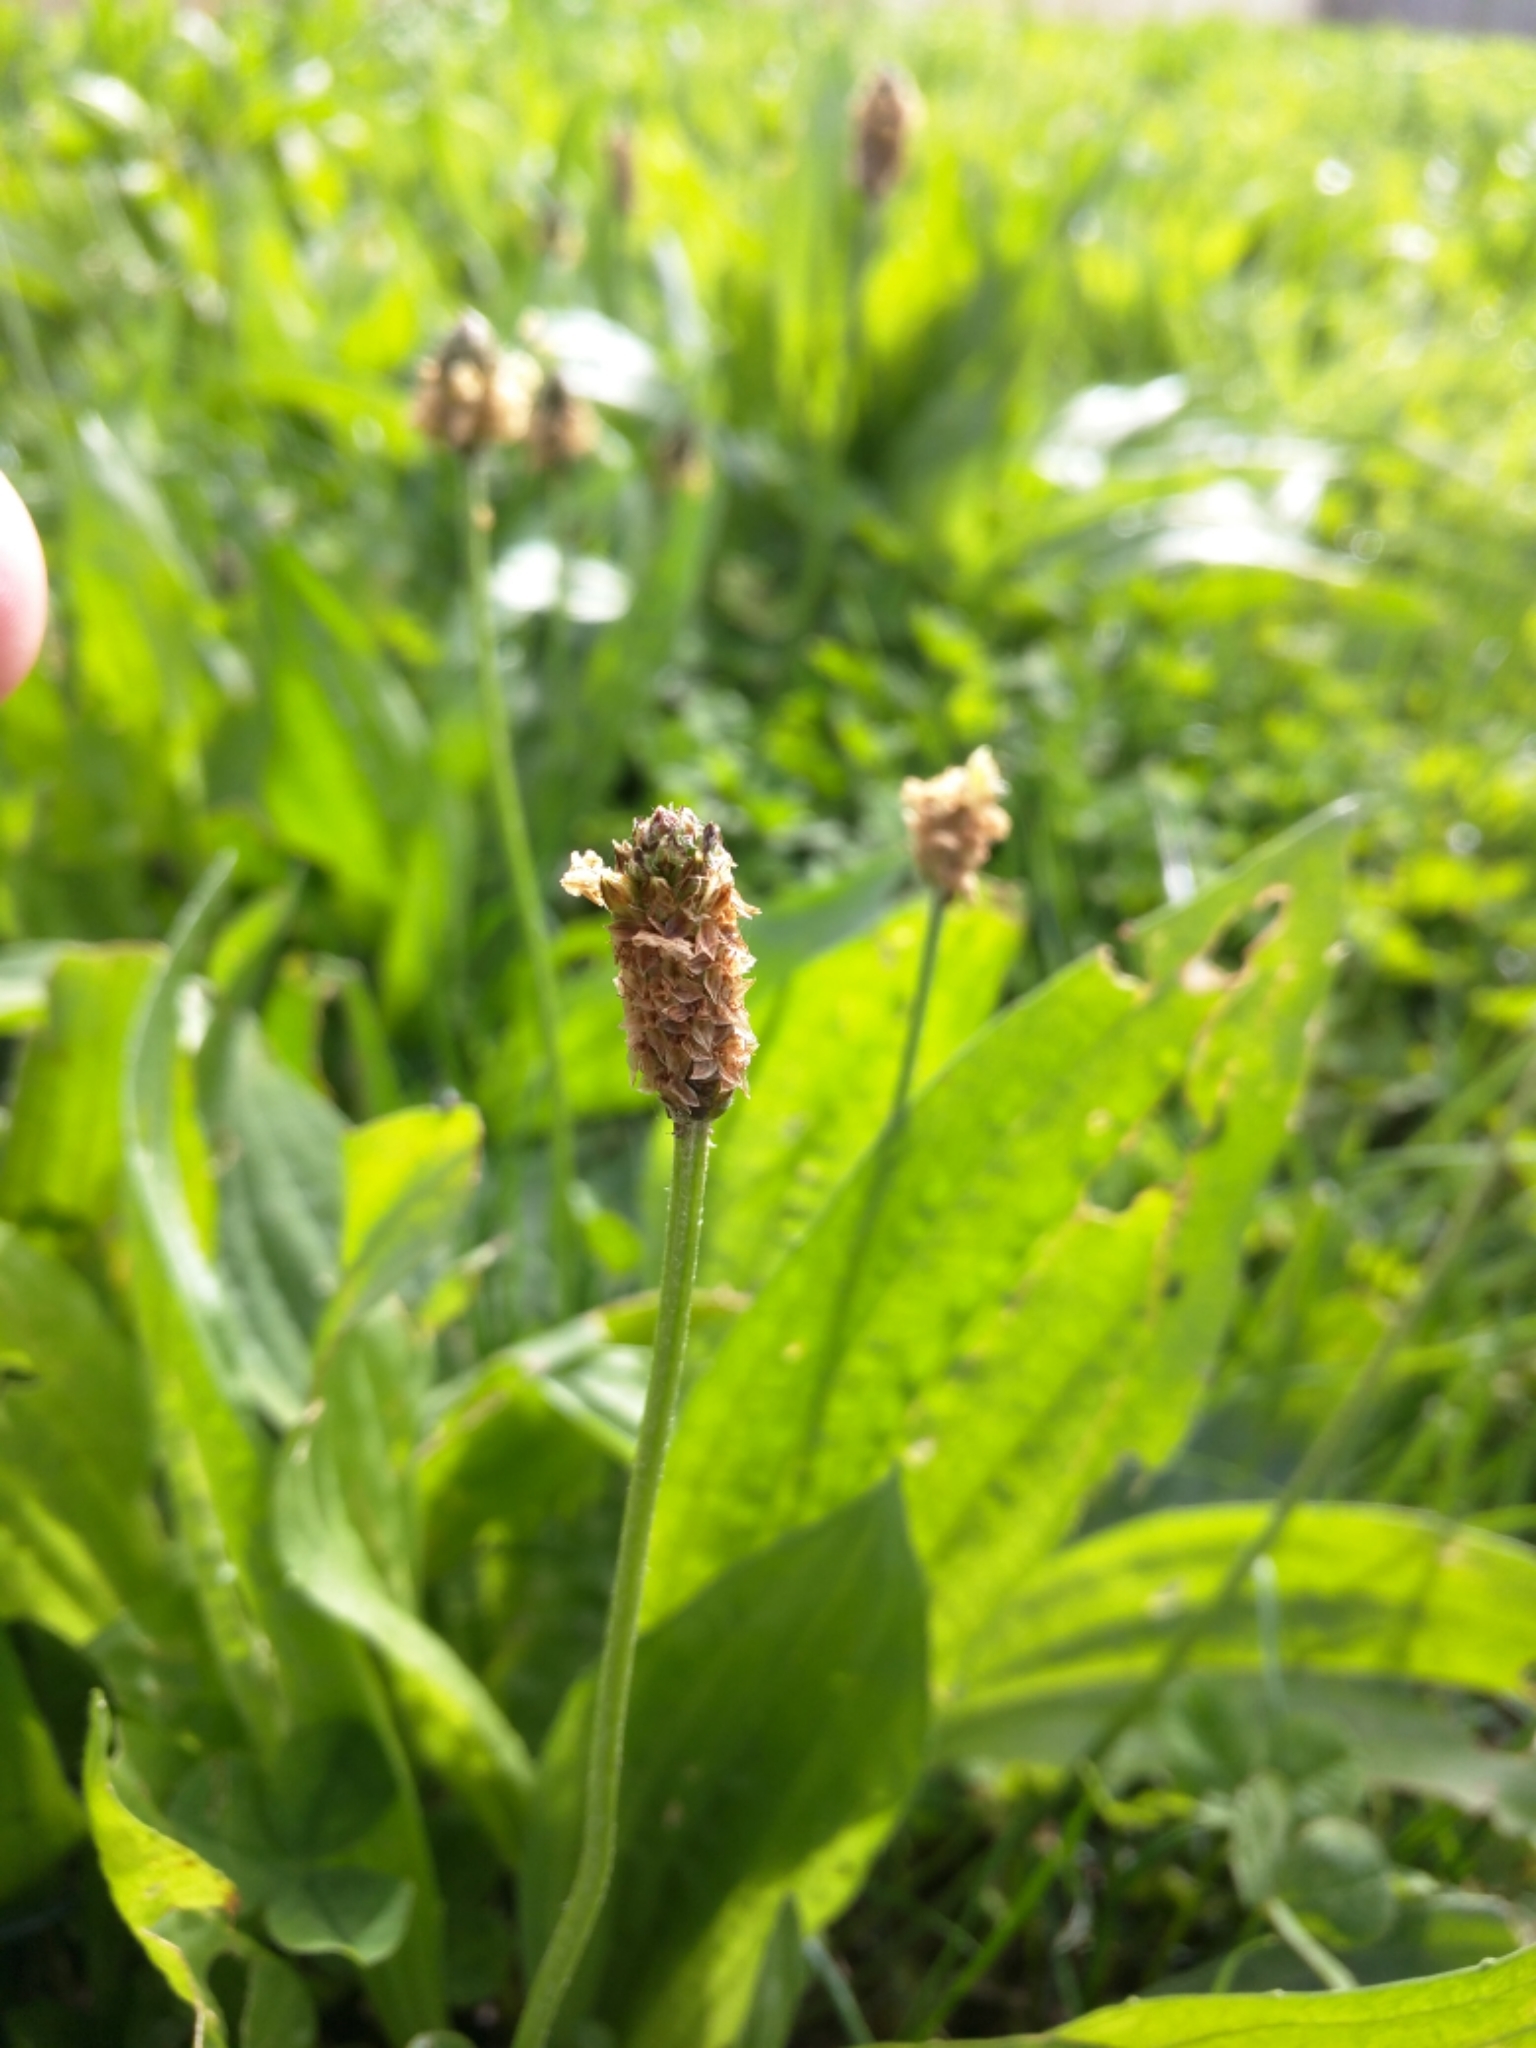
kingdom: Plantae
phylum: Tracheophyta
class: Magnoliopsida
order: Lamiales
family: Plantaginaceae
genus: Plantago
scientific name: Plantago lanceolata
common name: Ribwort plantain
